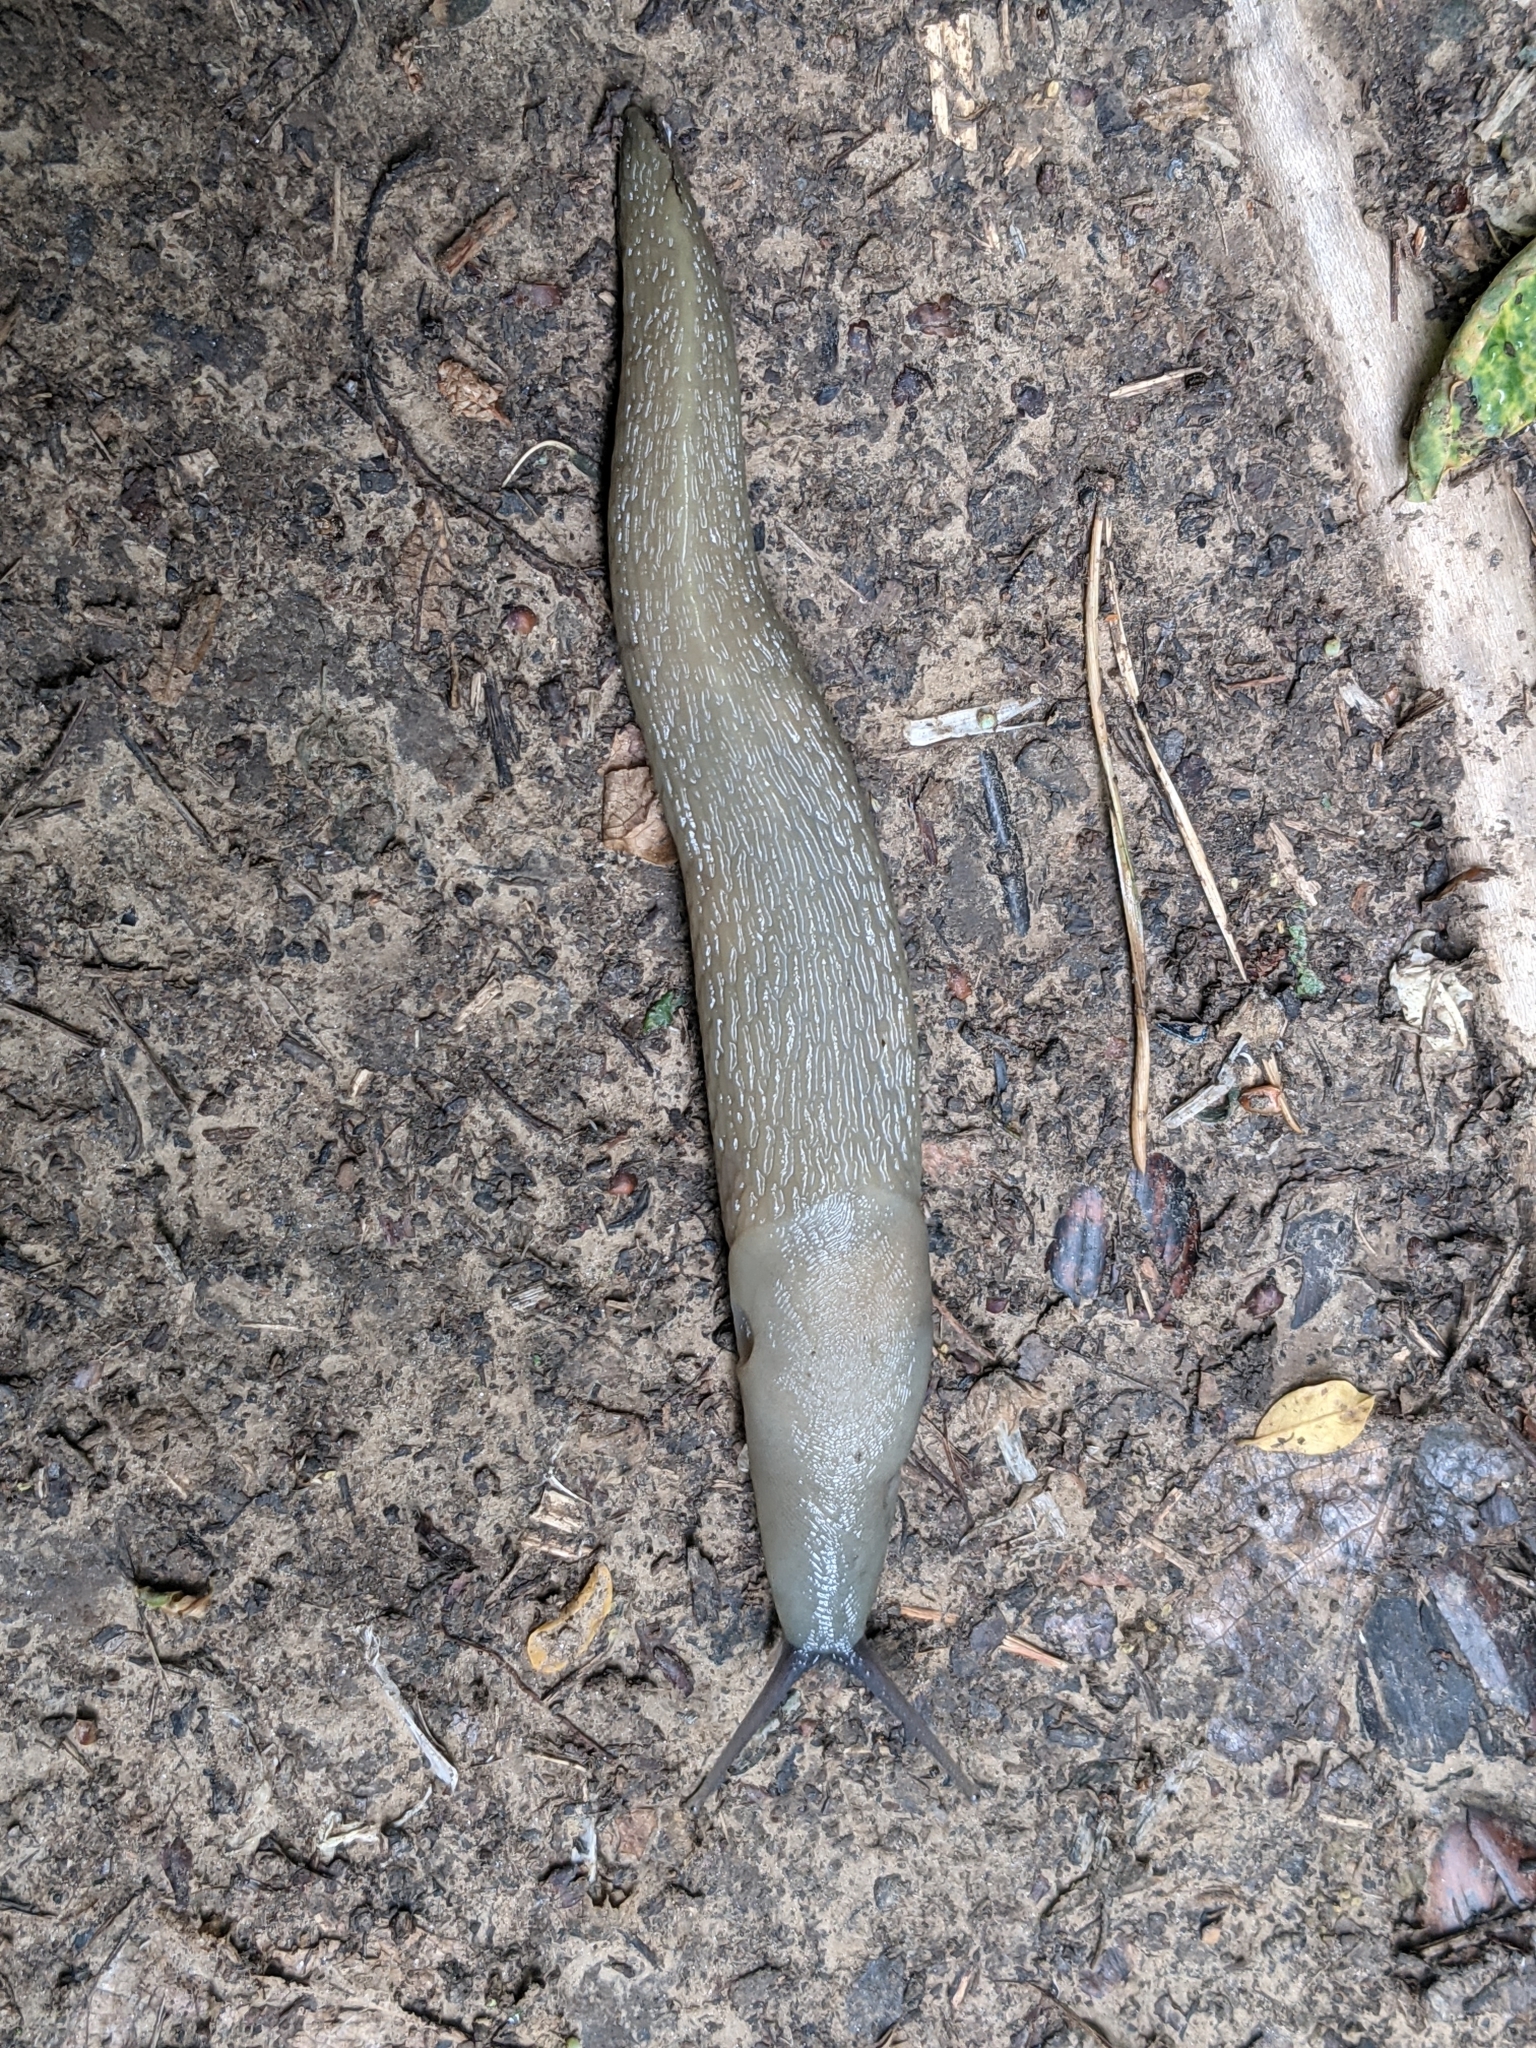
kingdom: Animalia
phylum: Mollusca
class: Gastropoda
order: Stylommatophora
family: Limacidae
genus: Limax
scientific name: Limax cinereoniger
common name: Ash-black slug
